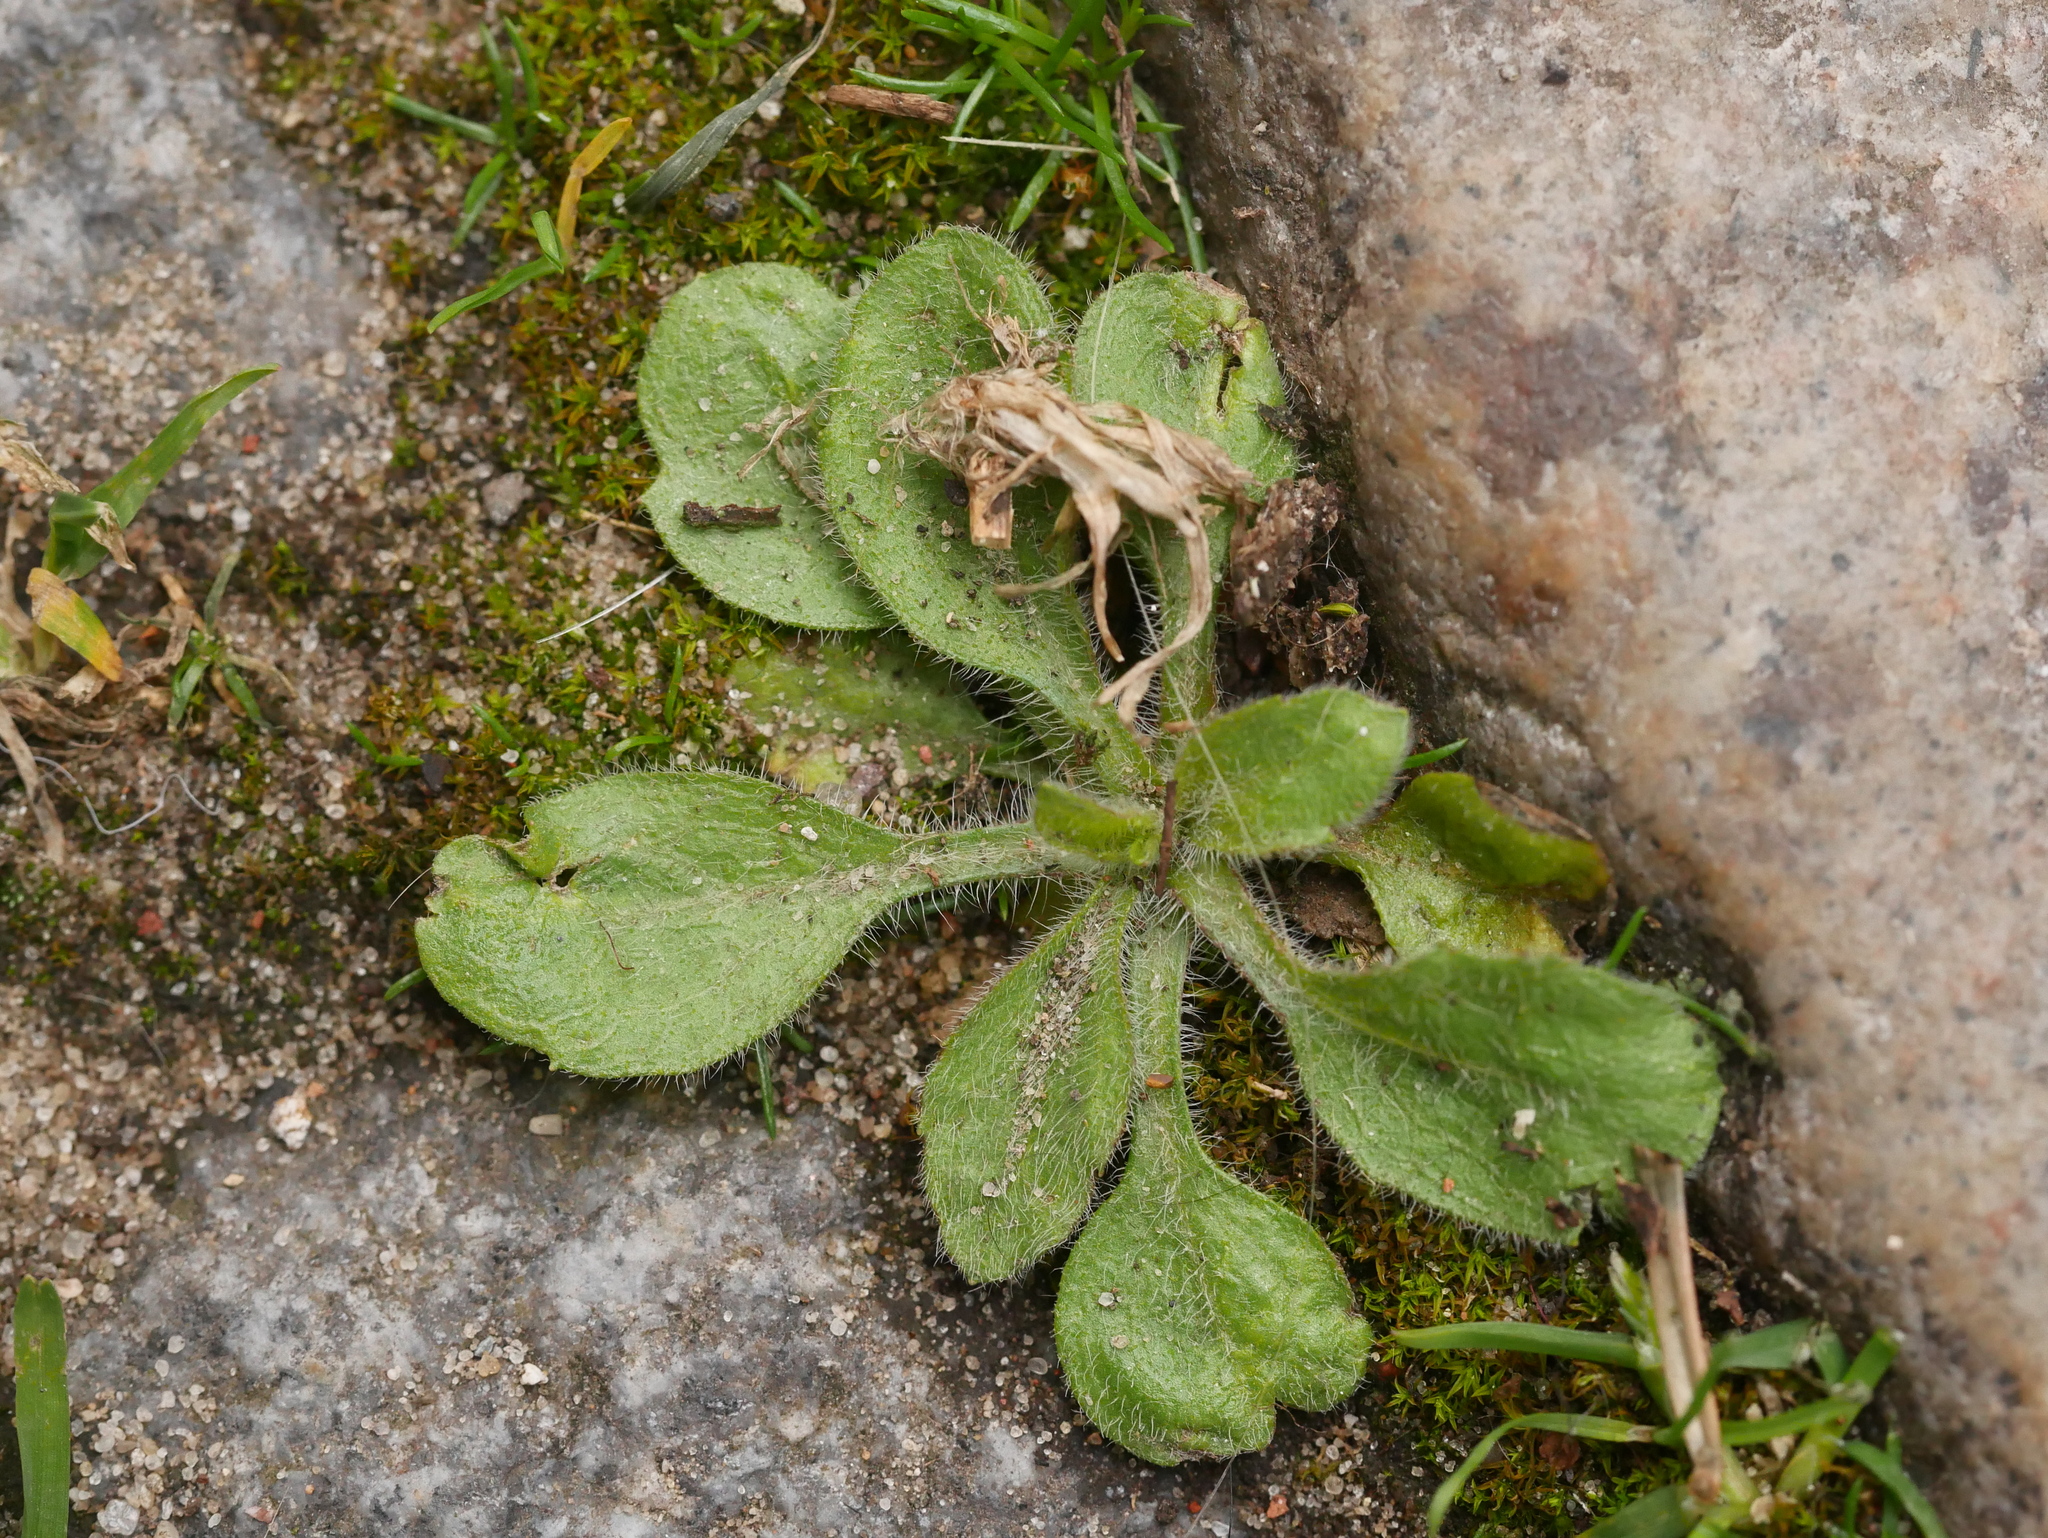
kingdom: Plantae
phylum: Tracheophyta
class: Magnoliopsida
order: Asterales
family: Asteraceae
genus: Erigeron
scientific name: Erigeron canadensis
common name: Canadian fleabane
